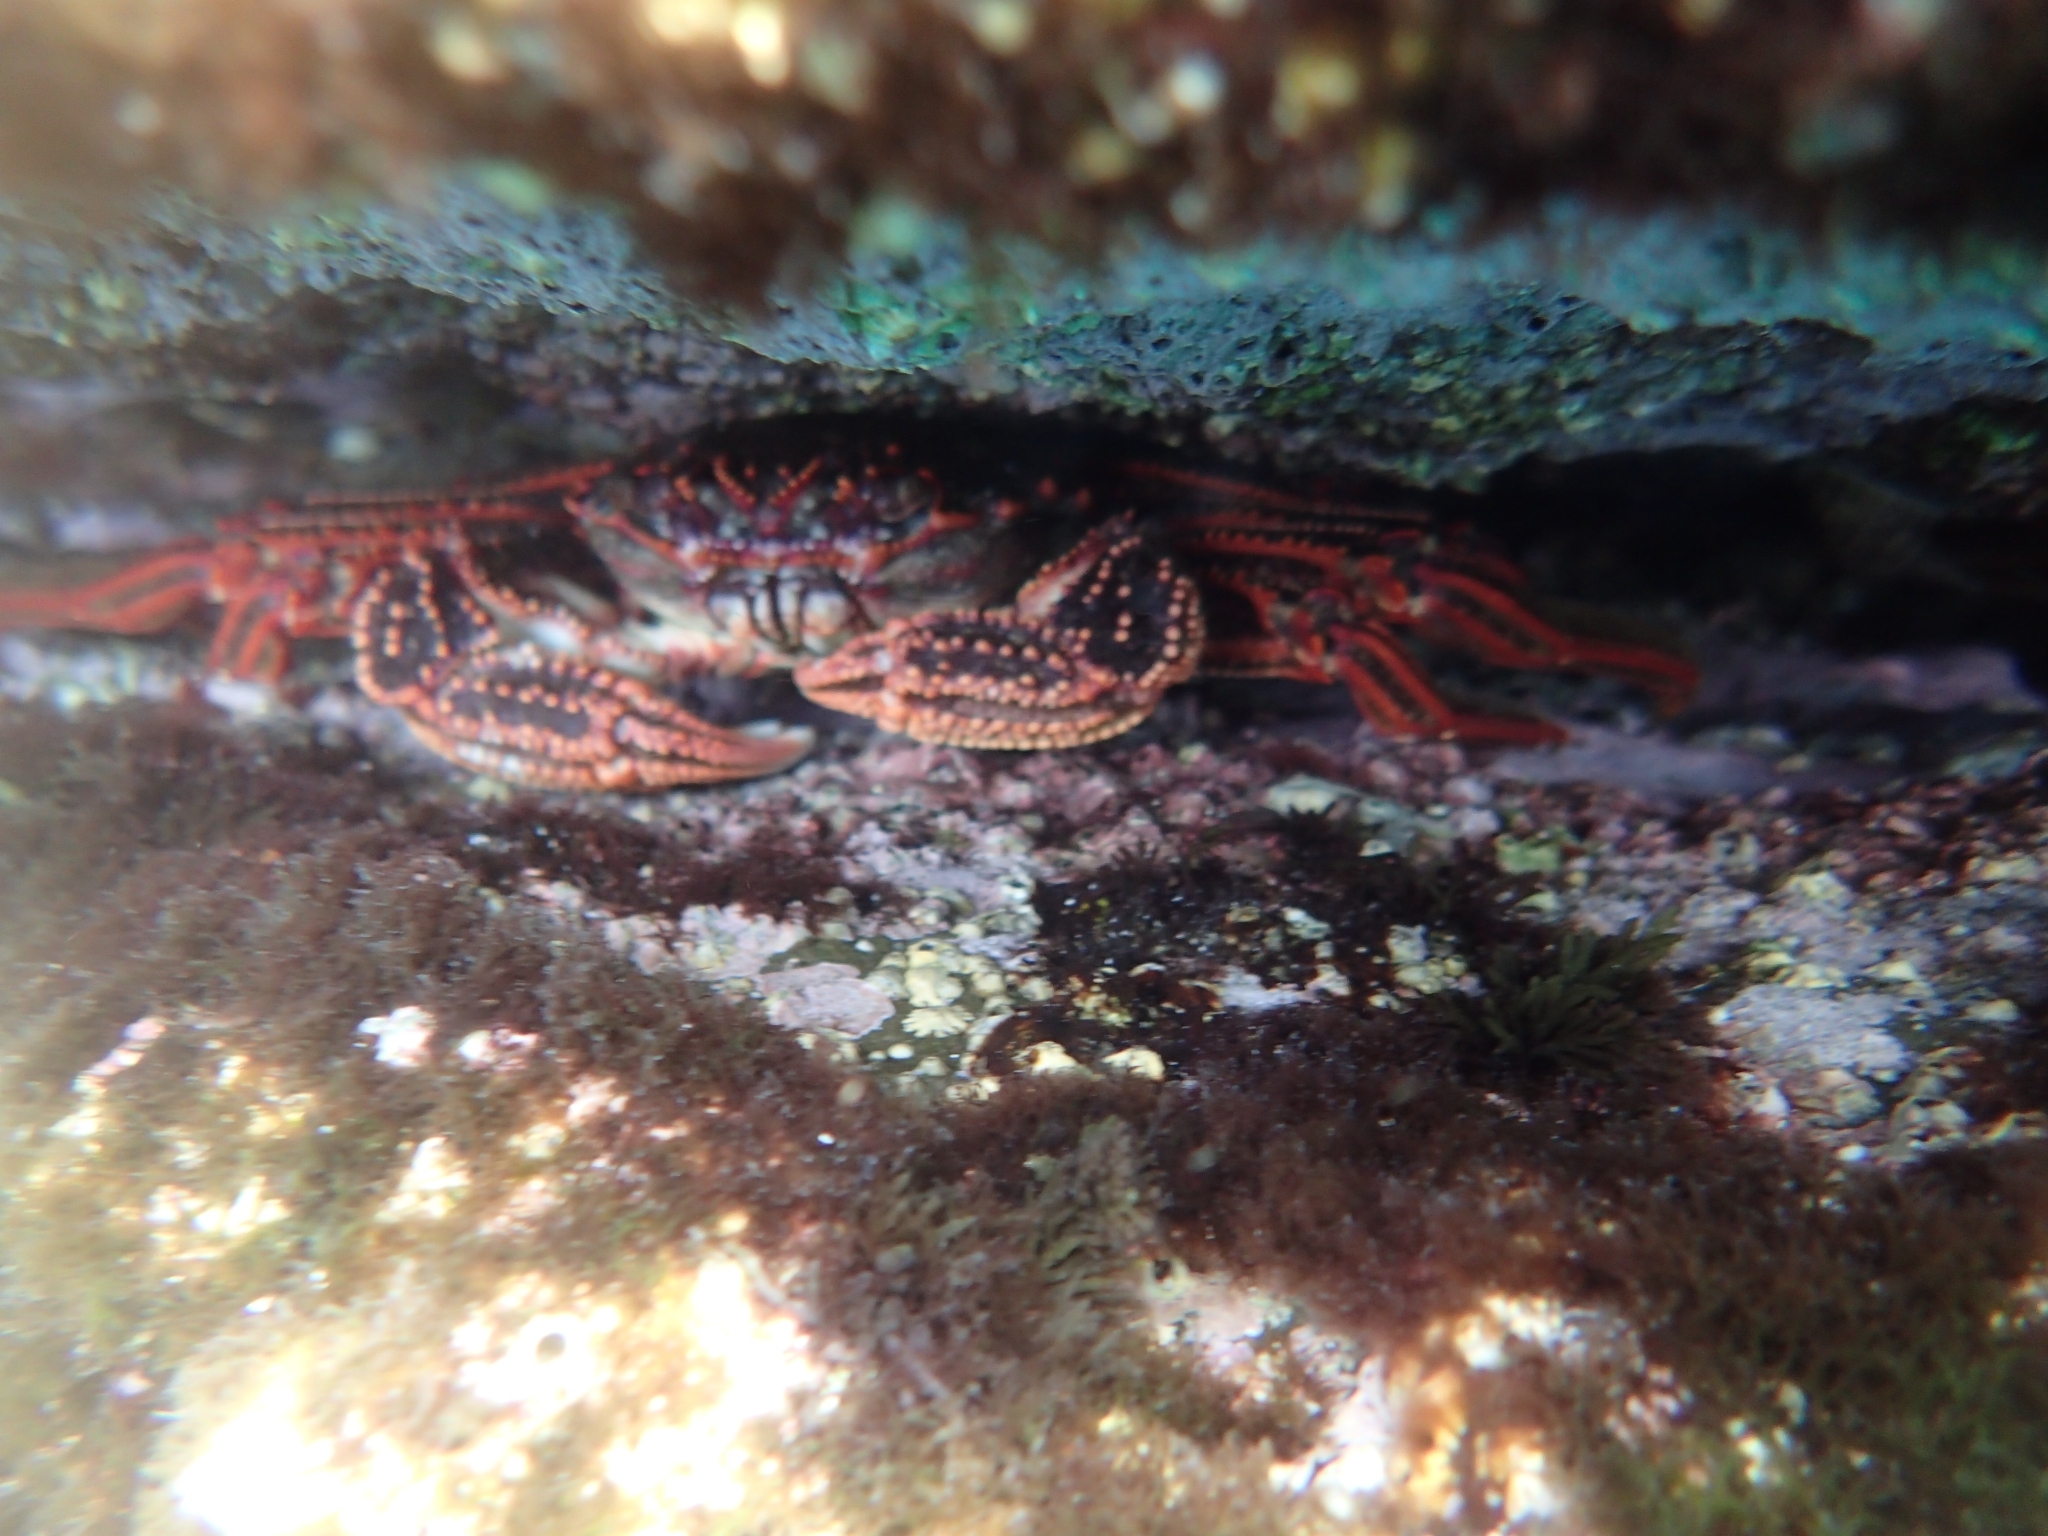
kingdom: Animalia
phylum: Arthropoda
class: Malacostraca
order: Decapoda
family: Plagusiidae
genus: Guinusia
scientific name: Guinusia chabrus
